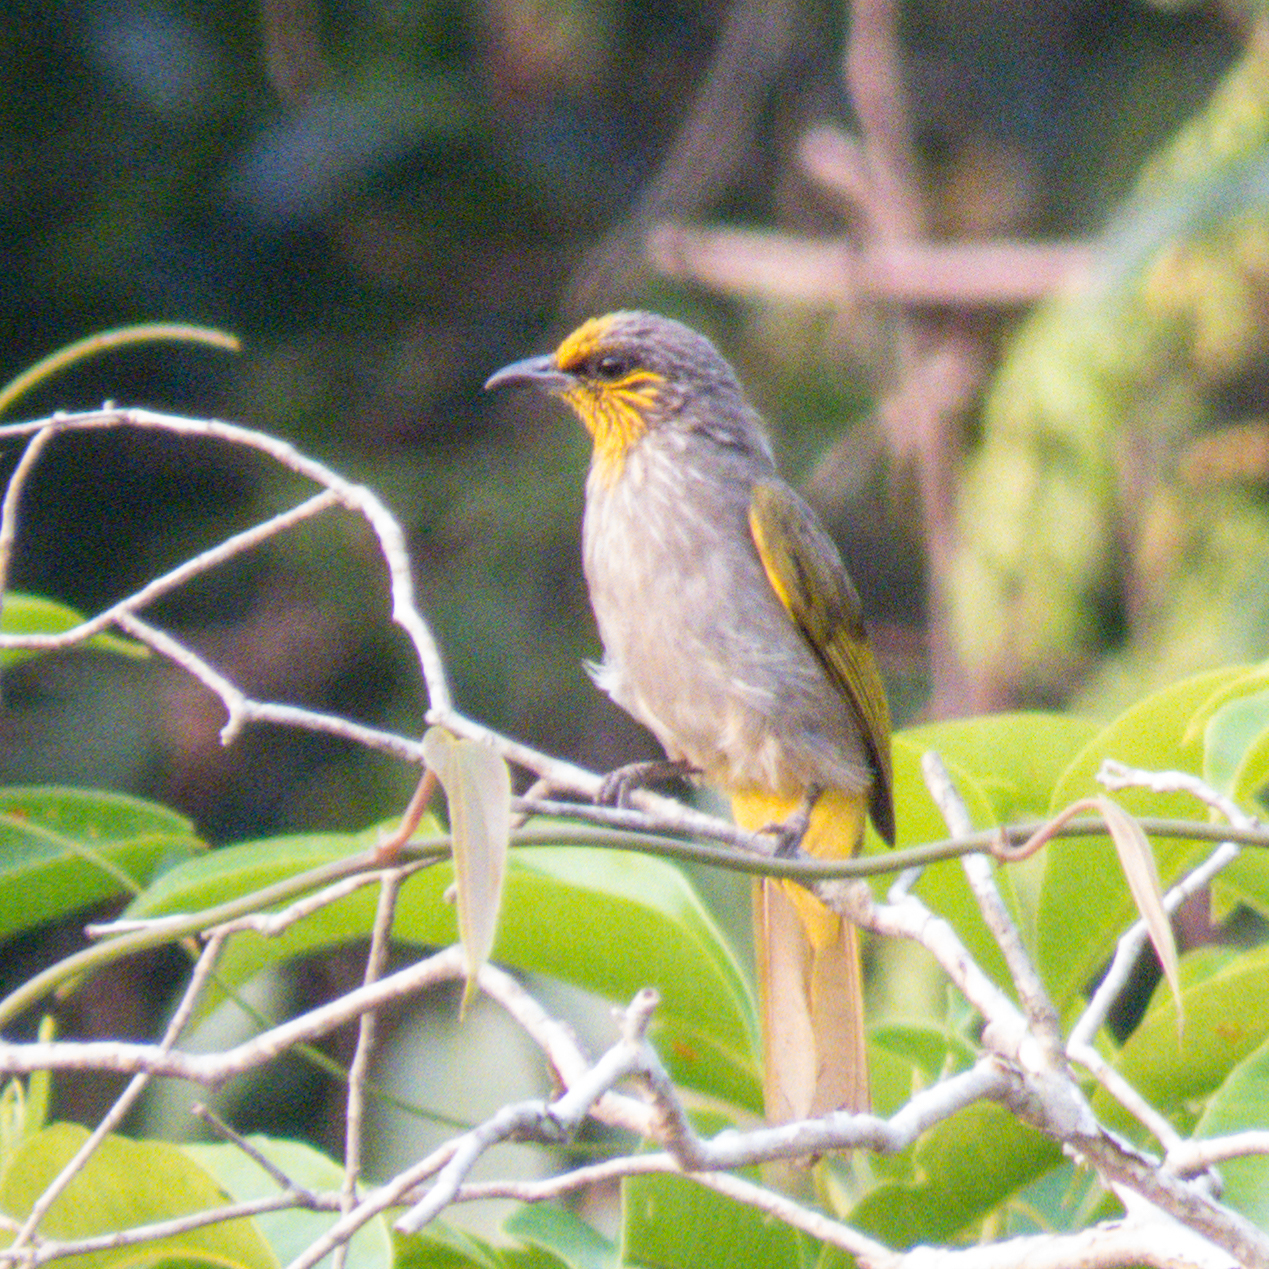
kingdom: Animalia
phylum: Chordata
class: Aves
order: Passeriformes
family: Pycnonotidae
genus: Pycnonotus
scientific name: Pycnonotus finlaysoni
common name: Stripe-throated bulbul
